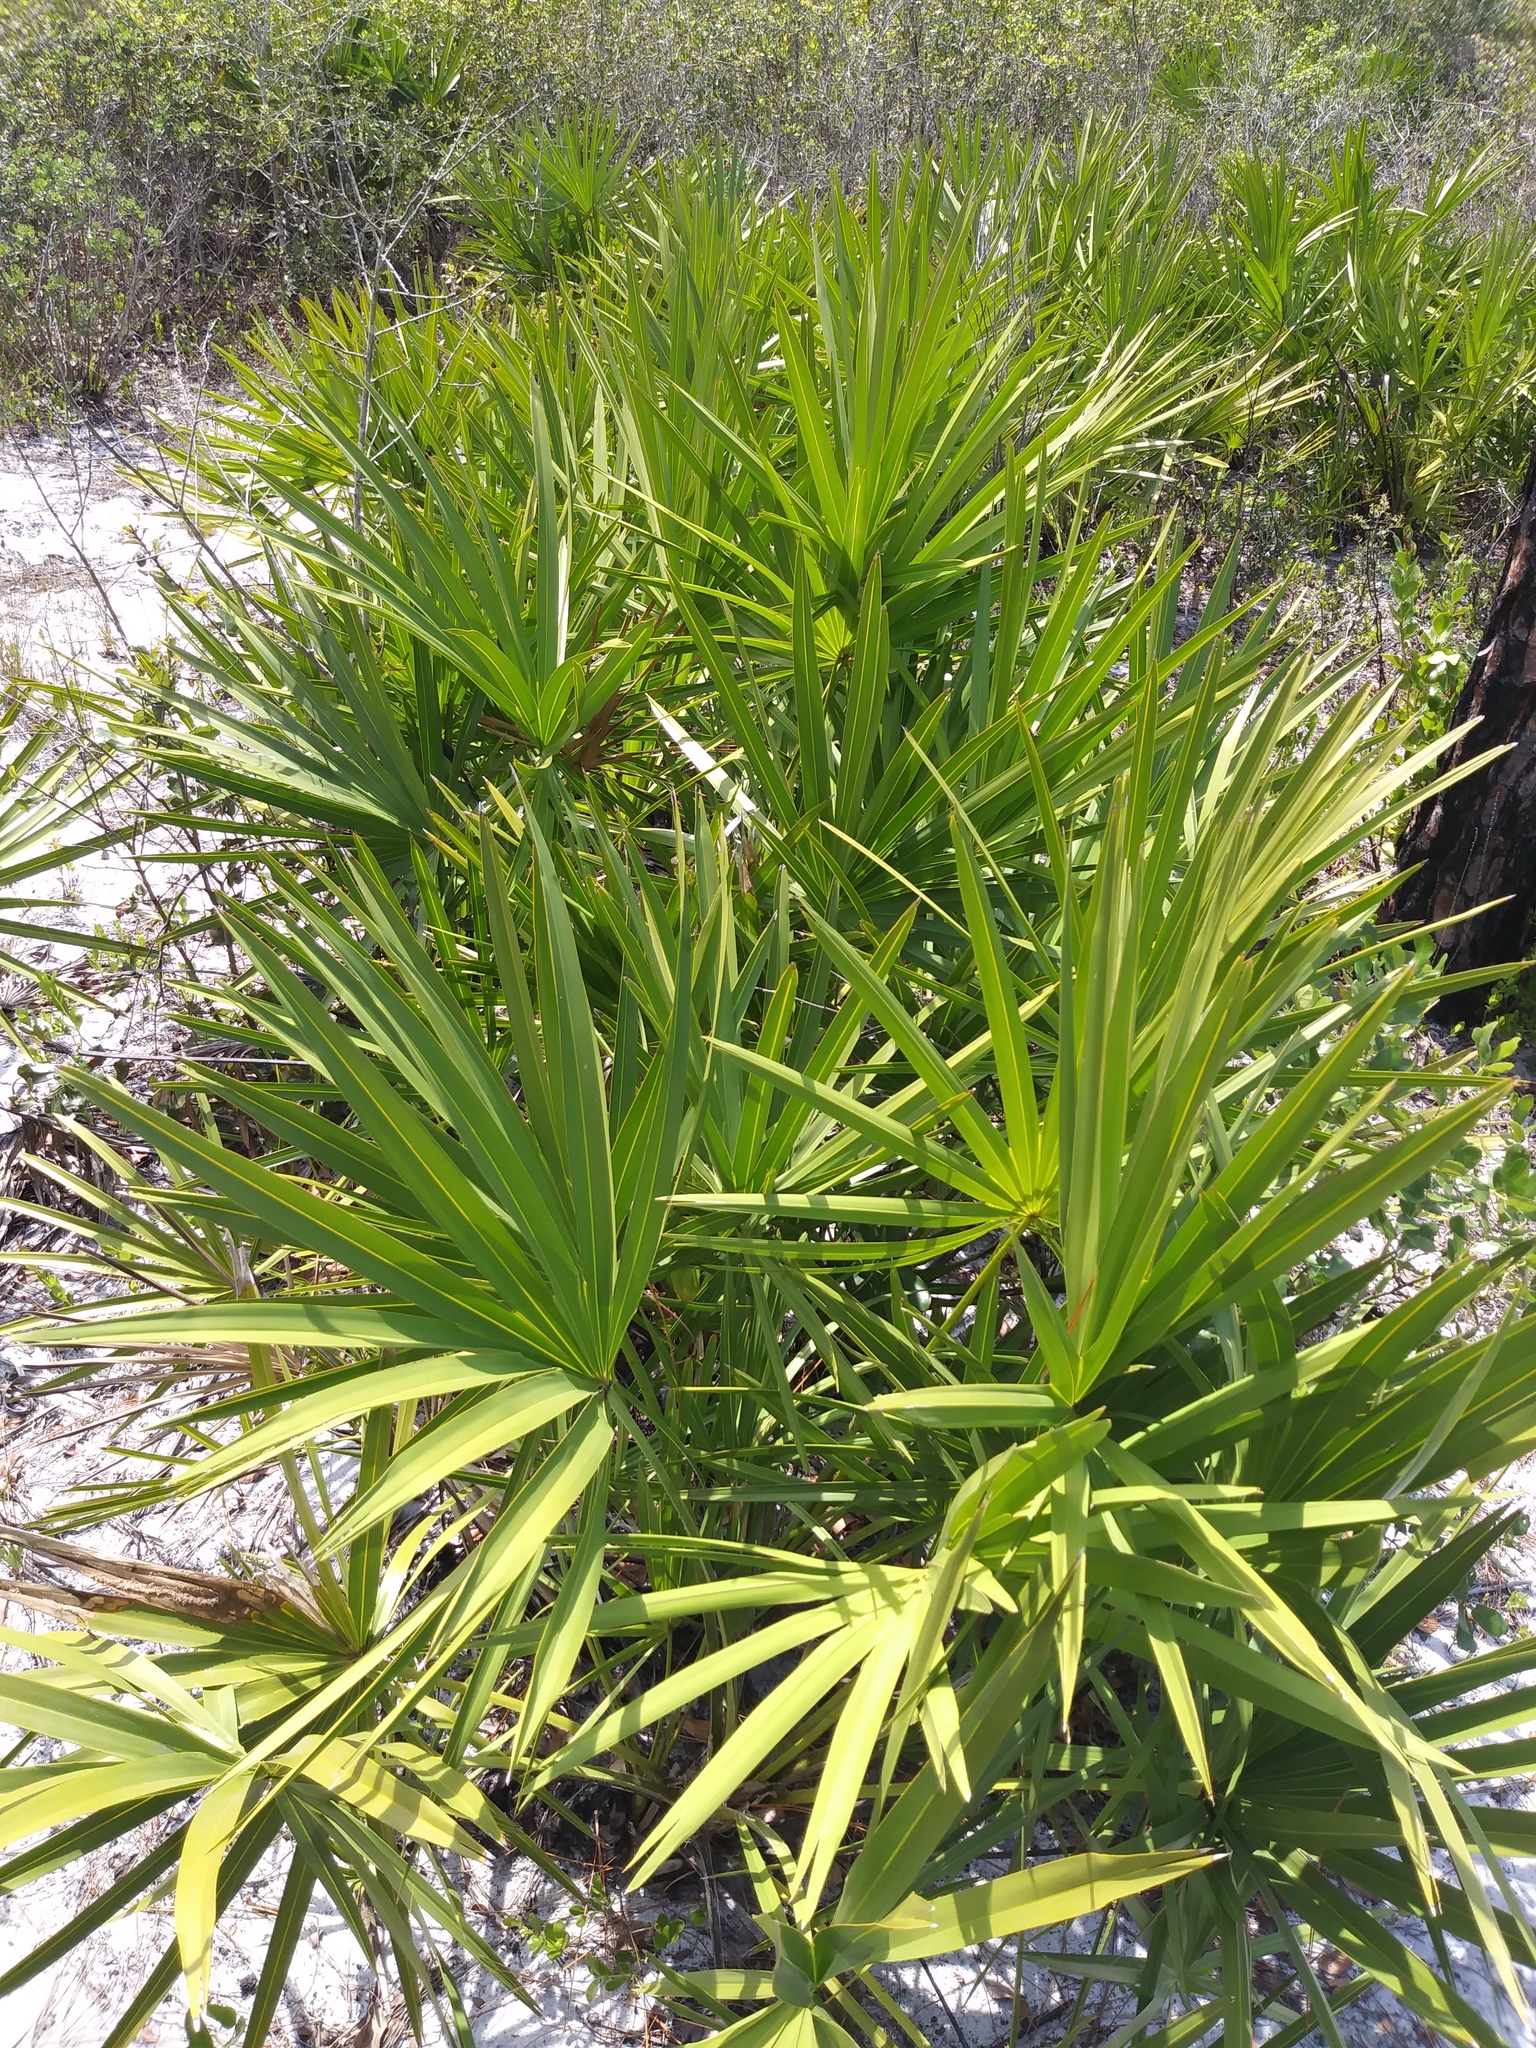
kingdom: Plantae
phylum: Tracheophyta
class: Liliopsida
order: Arecales
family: Arecaceae
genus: Serenoa
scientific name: Serenoa repens
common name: Saw-palmetto
